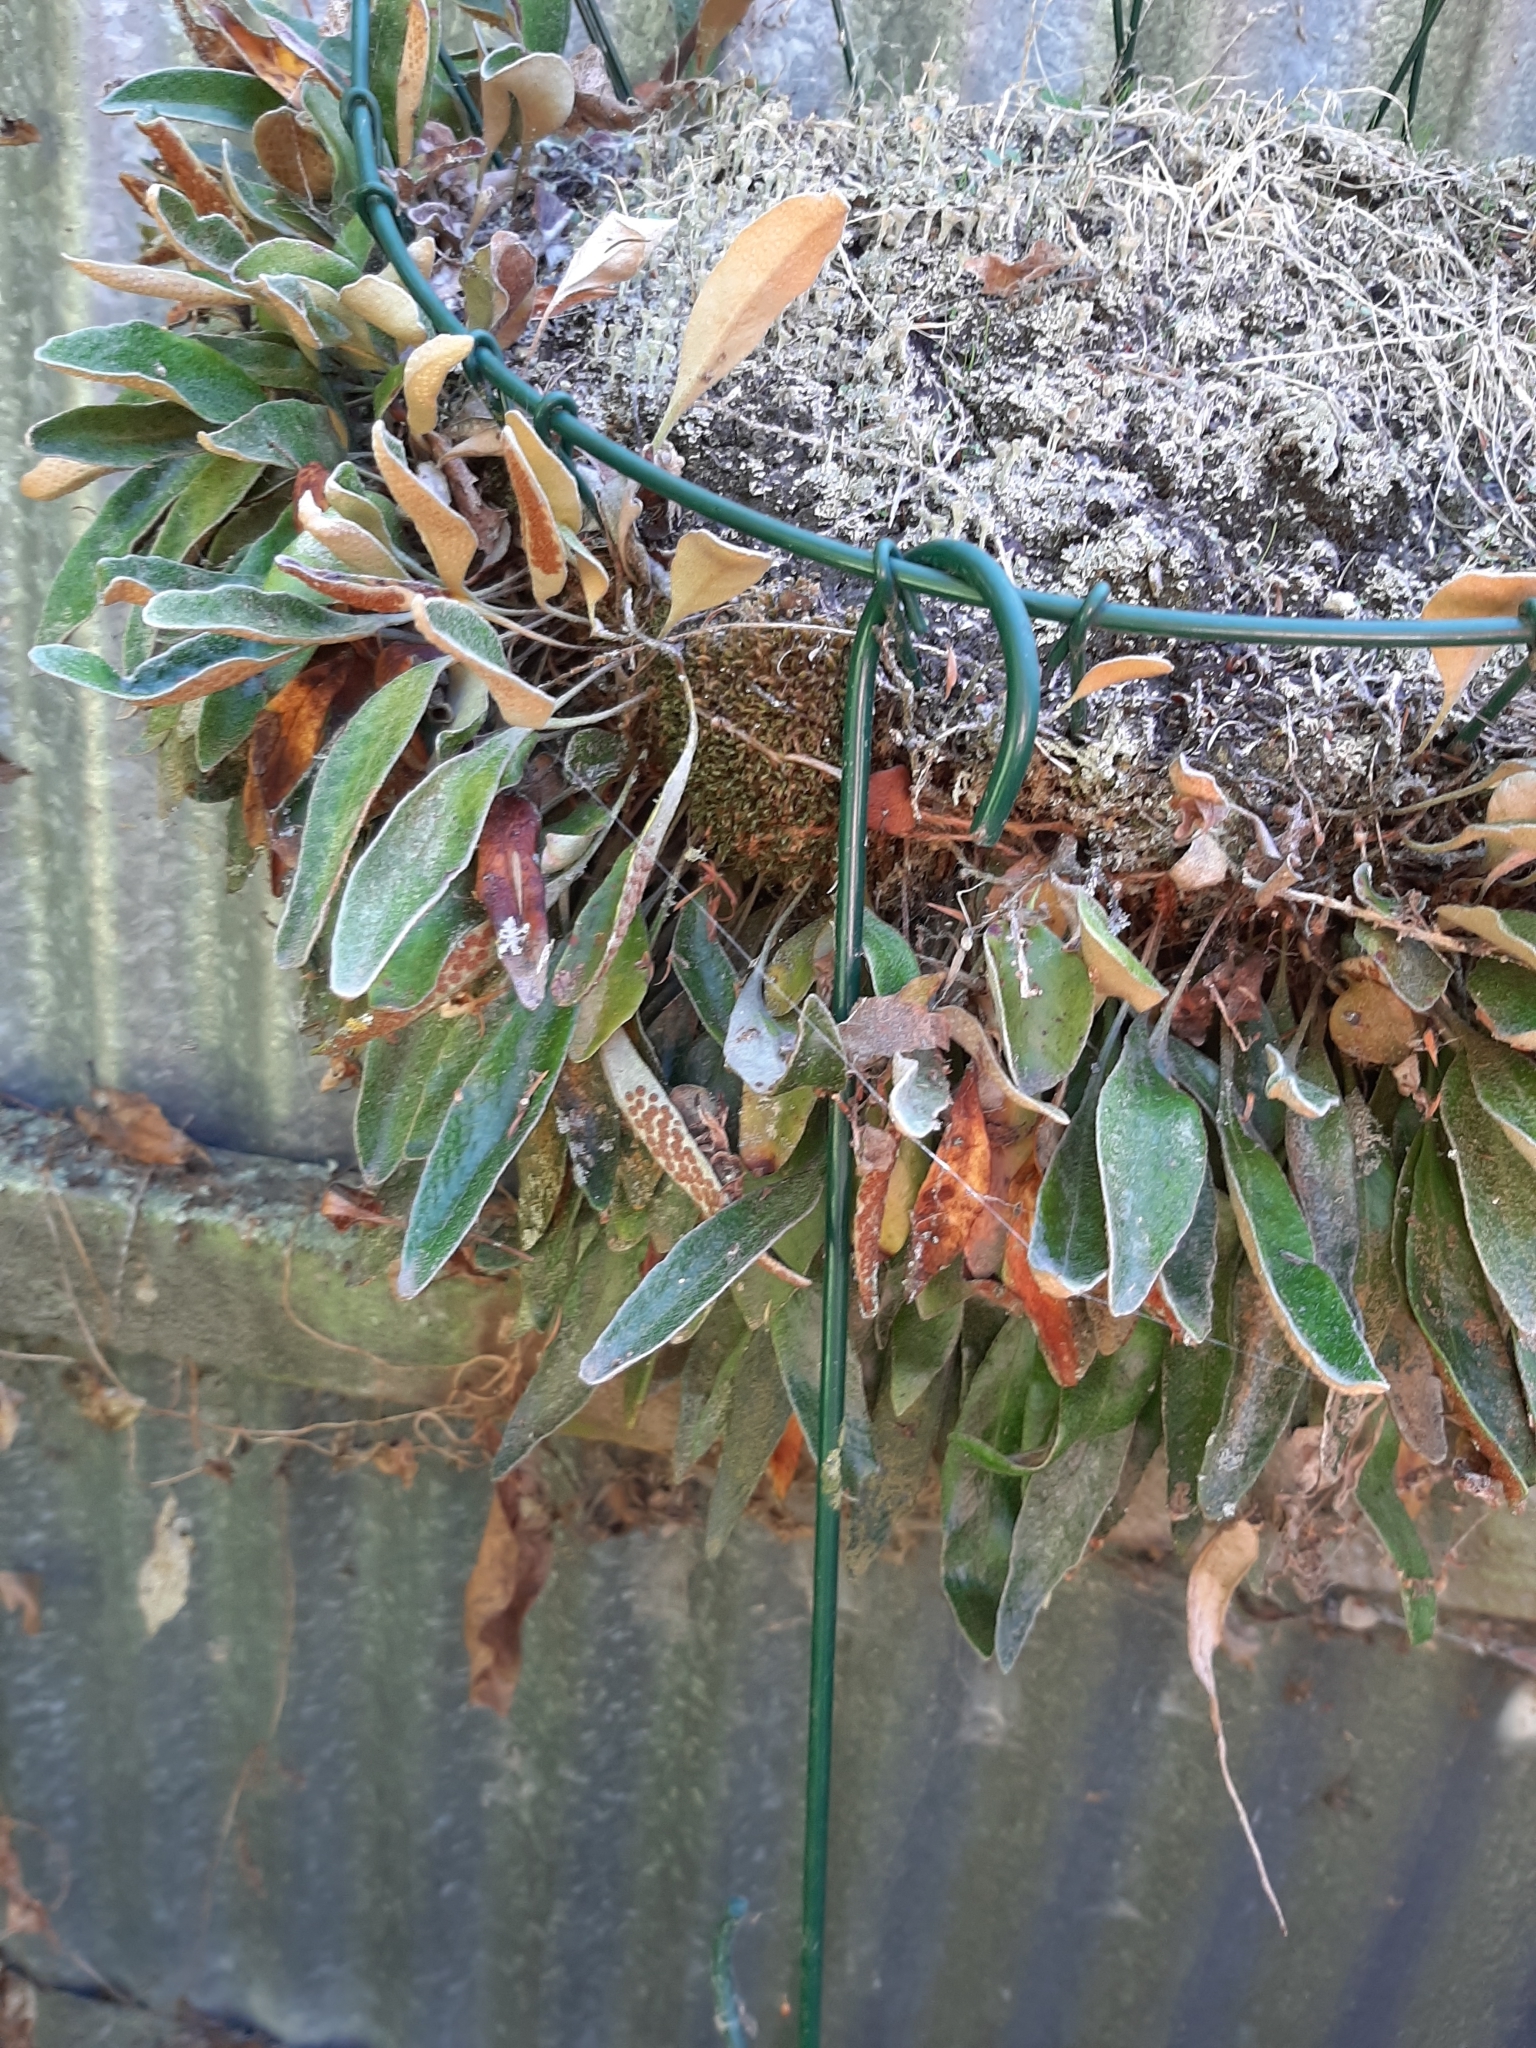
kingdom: Plantae
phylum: Tracheophyta
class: Polypodiopsida
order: Polypodiales
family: Polypodiaceae
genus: Pyrrosia
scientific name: Pyrrosia eleagnifolia
